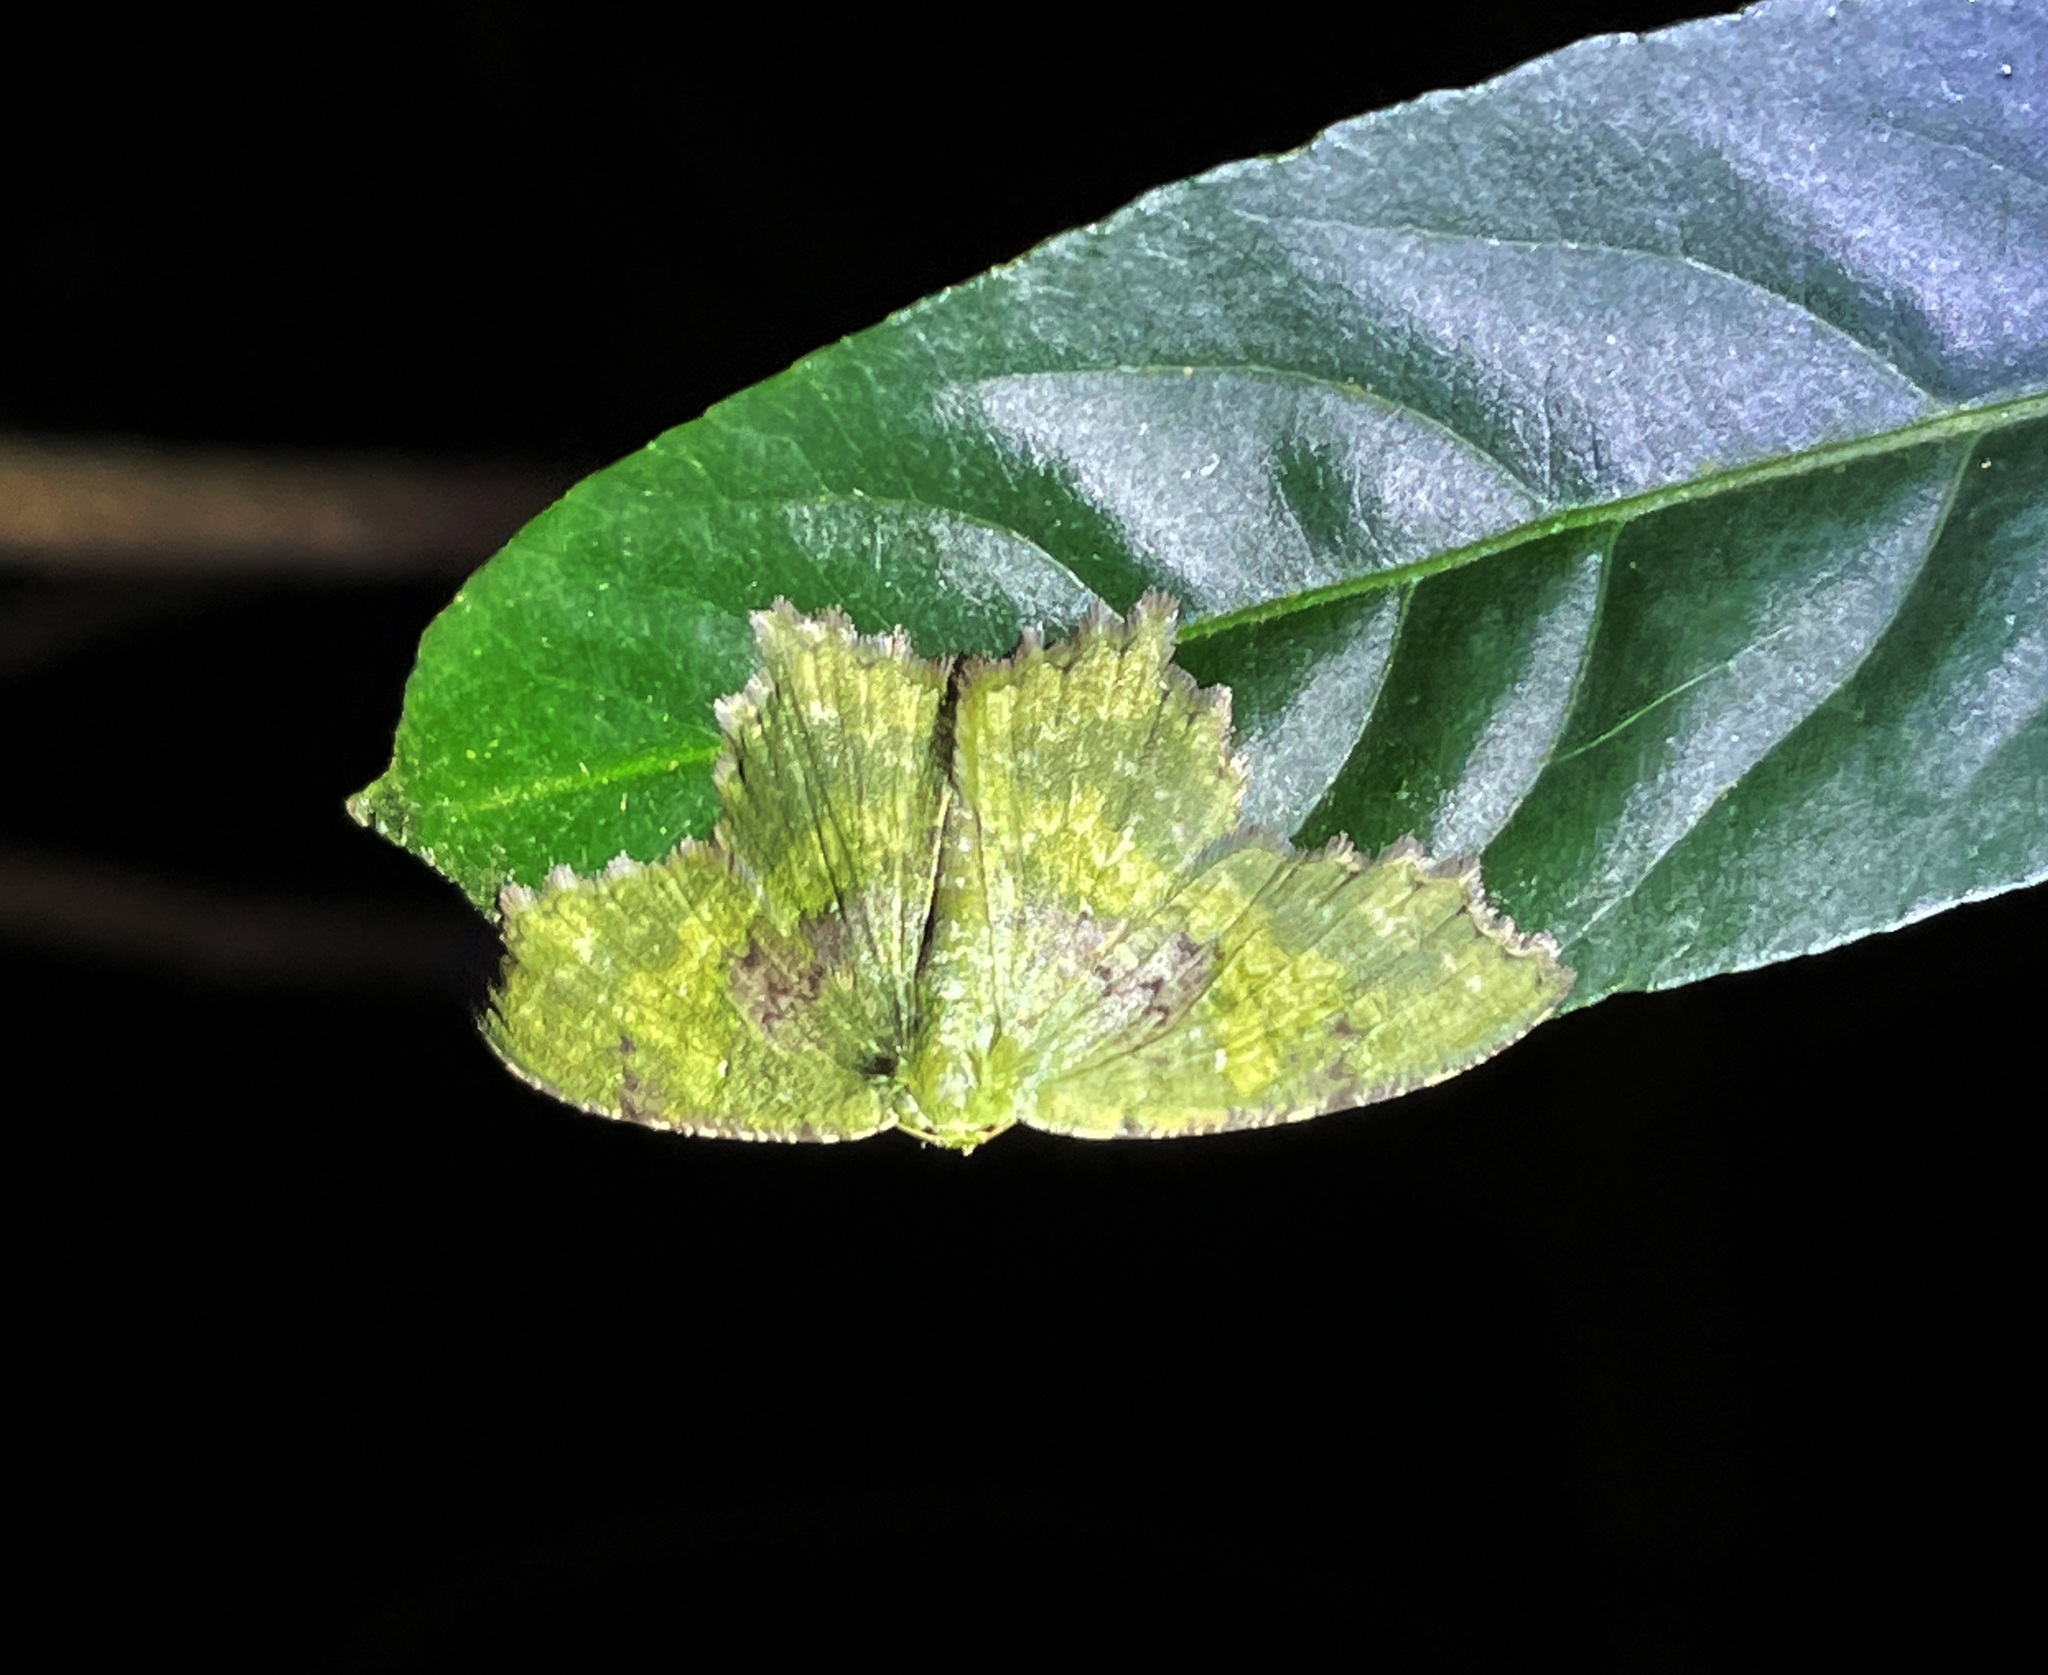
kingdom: Animalia
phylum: Arthropoda
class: Insecta
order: Lepidoptera
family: Geometridae
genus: Paramaxates
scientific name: Paramaxates vagata
